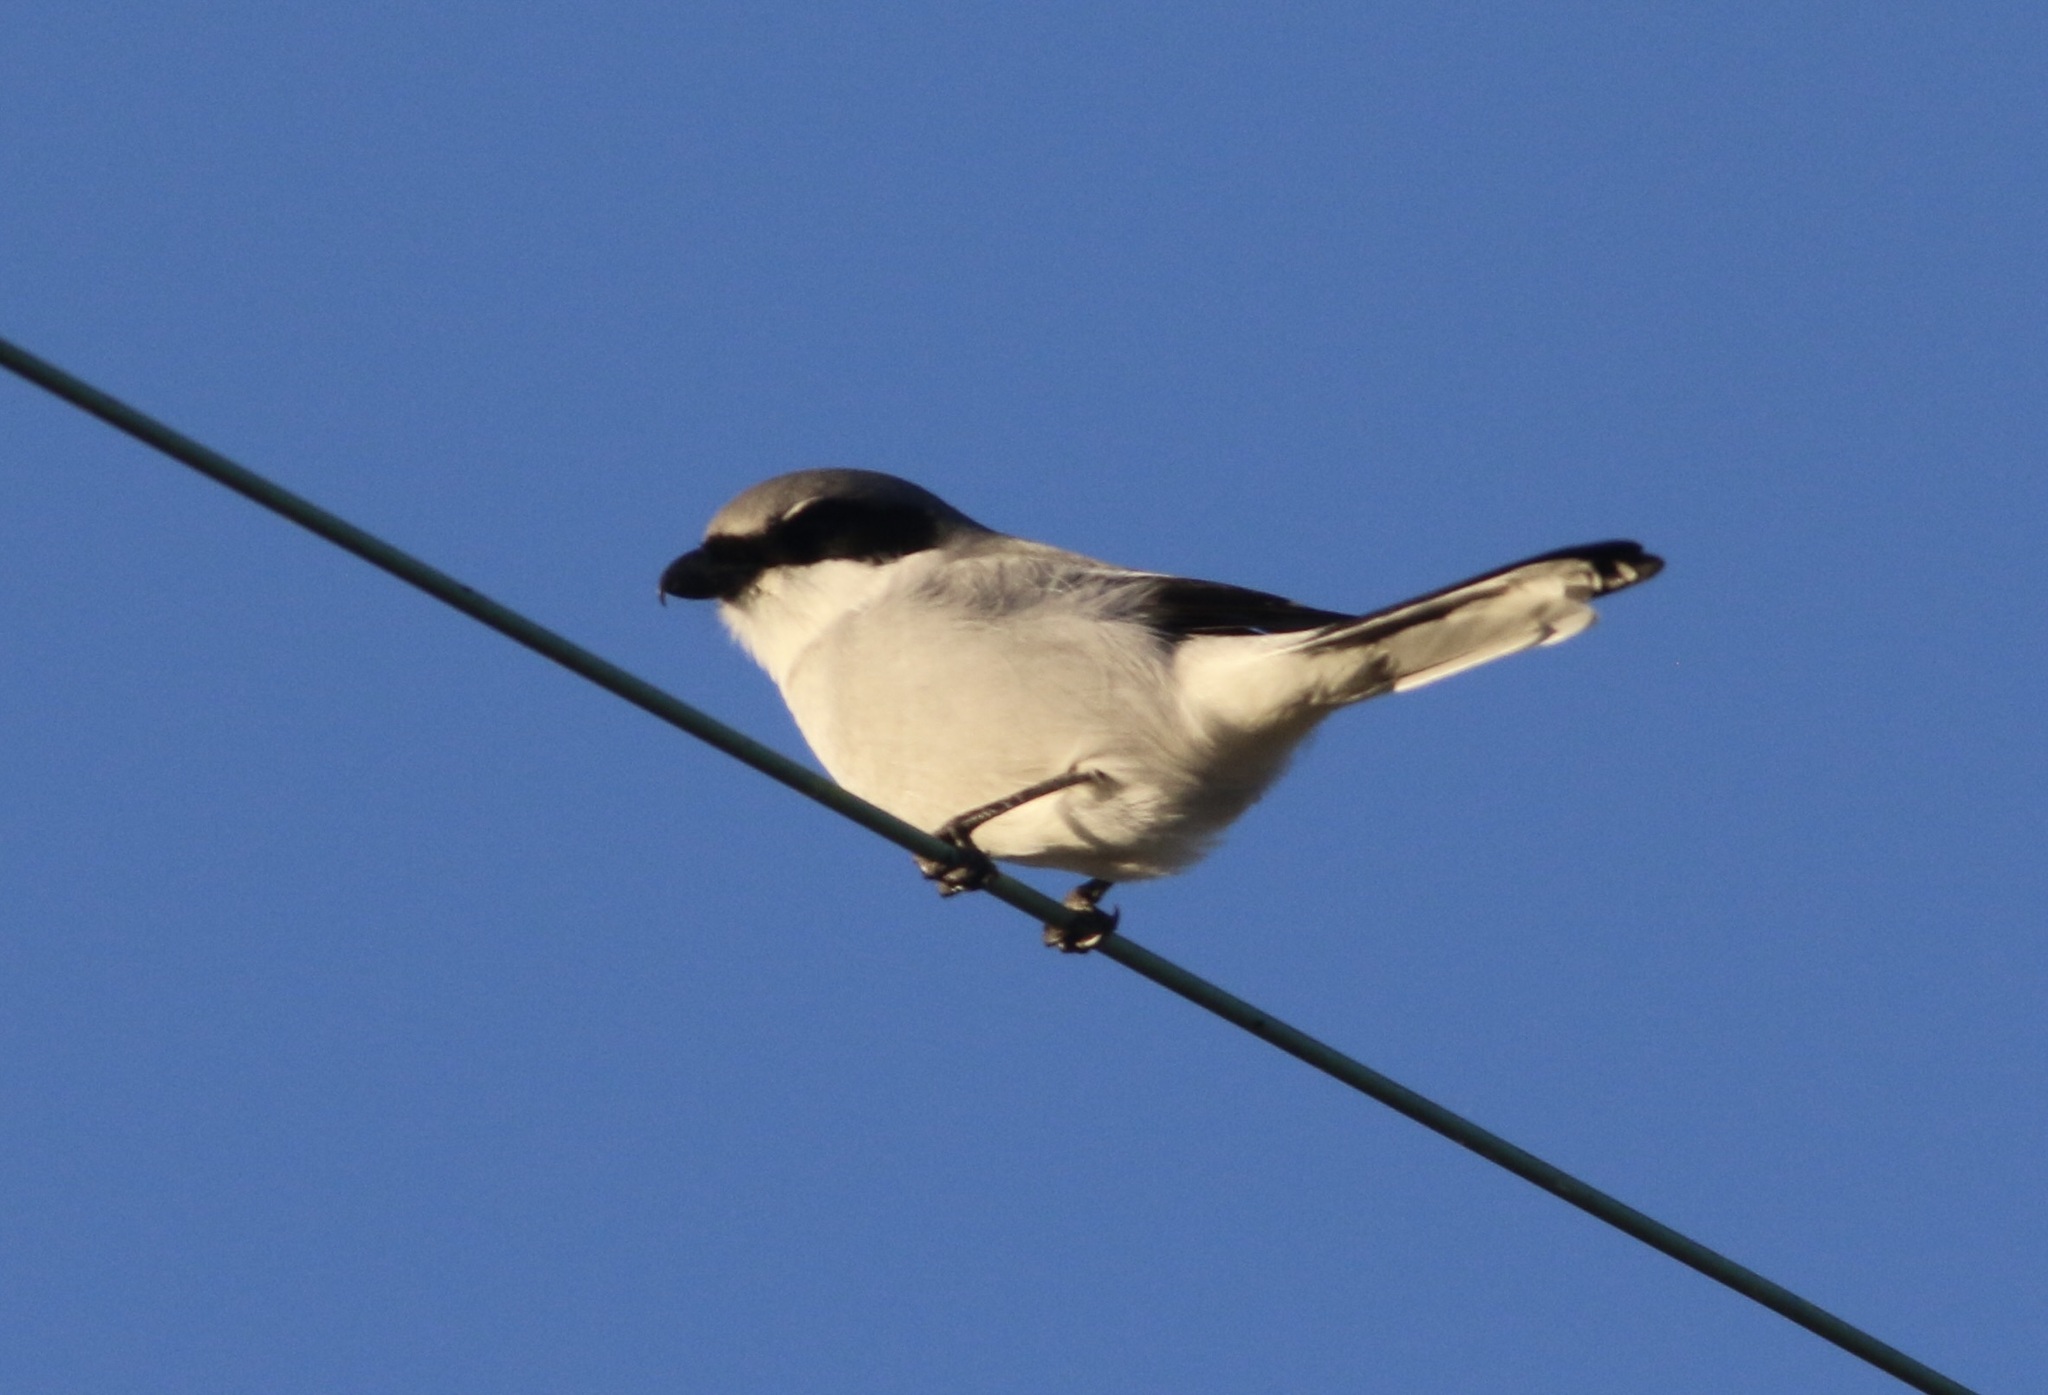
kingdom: Animalia
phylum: Chordata
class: Aves
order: Passeriformes
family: Laniidae
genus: Lanius
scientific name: Lanius ludovicianus
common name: Loggerhead shrike
